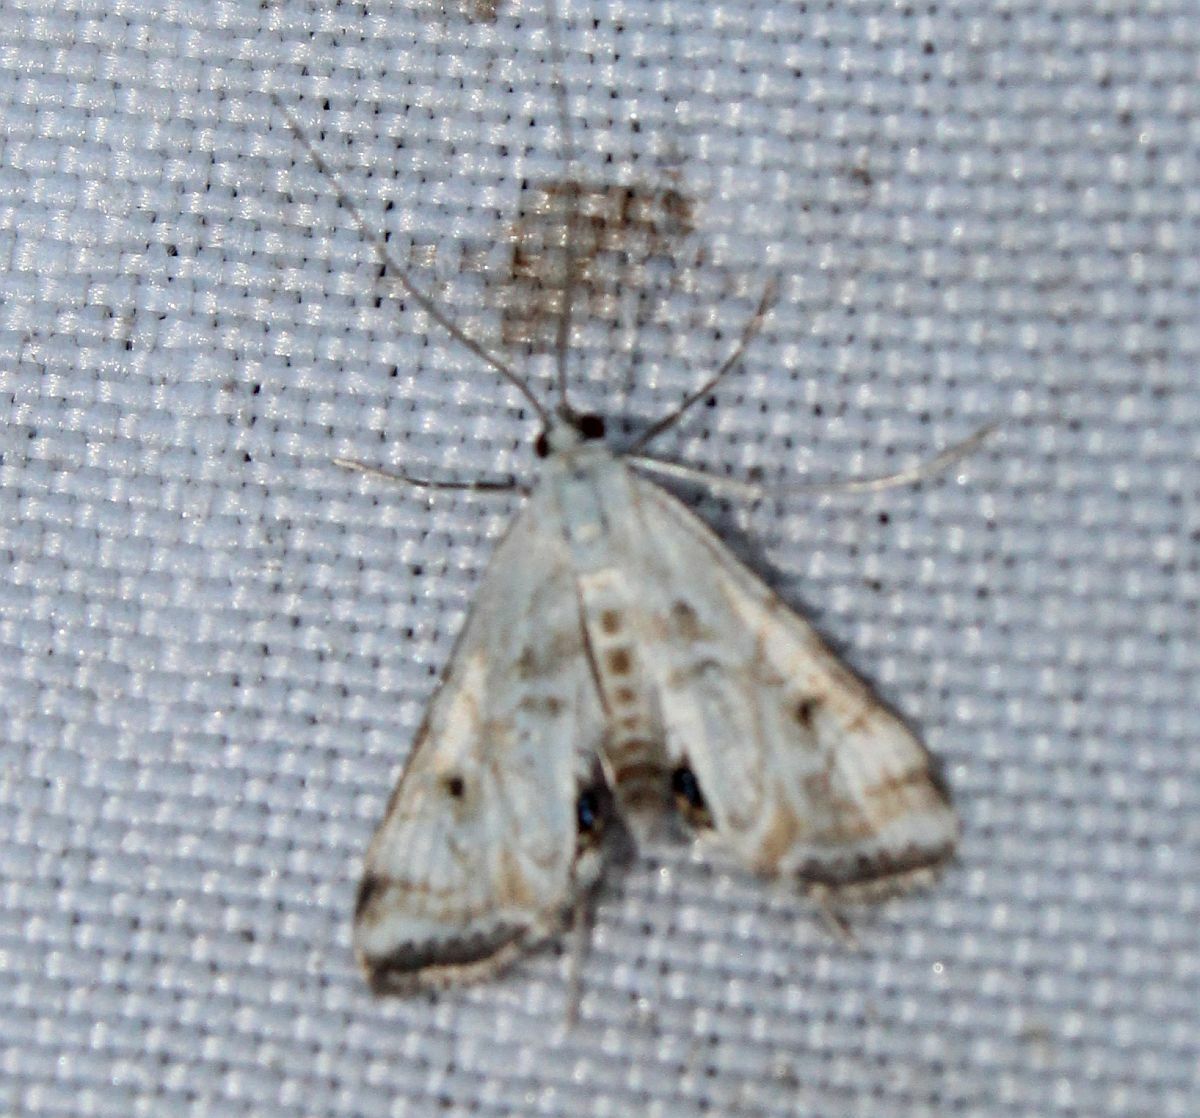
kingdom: Animalia
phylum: Arthropoda
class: Insecta
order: Lepidoptera
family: Crambidae
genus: Cataclysta
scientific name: Cataclysta lemnata
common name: Small china-mark
